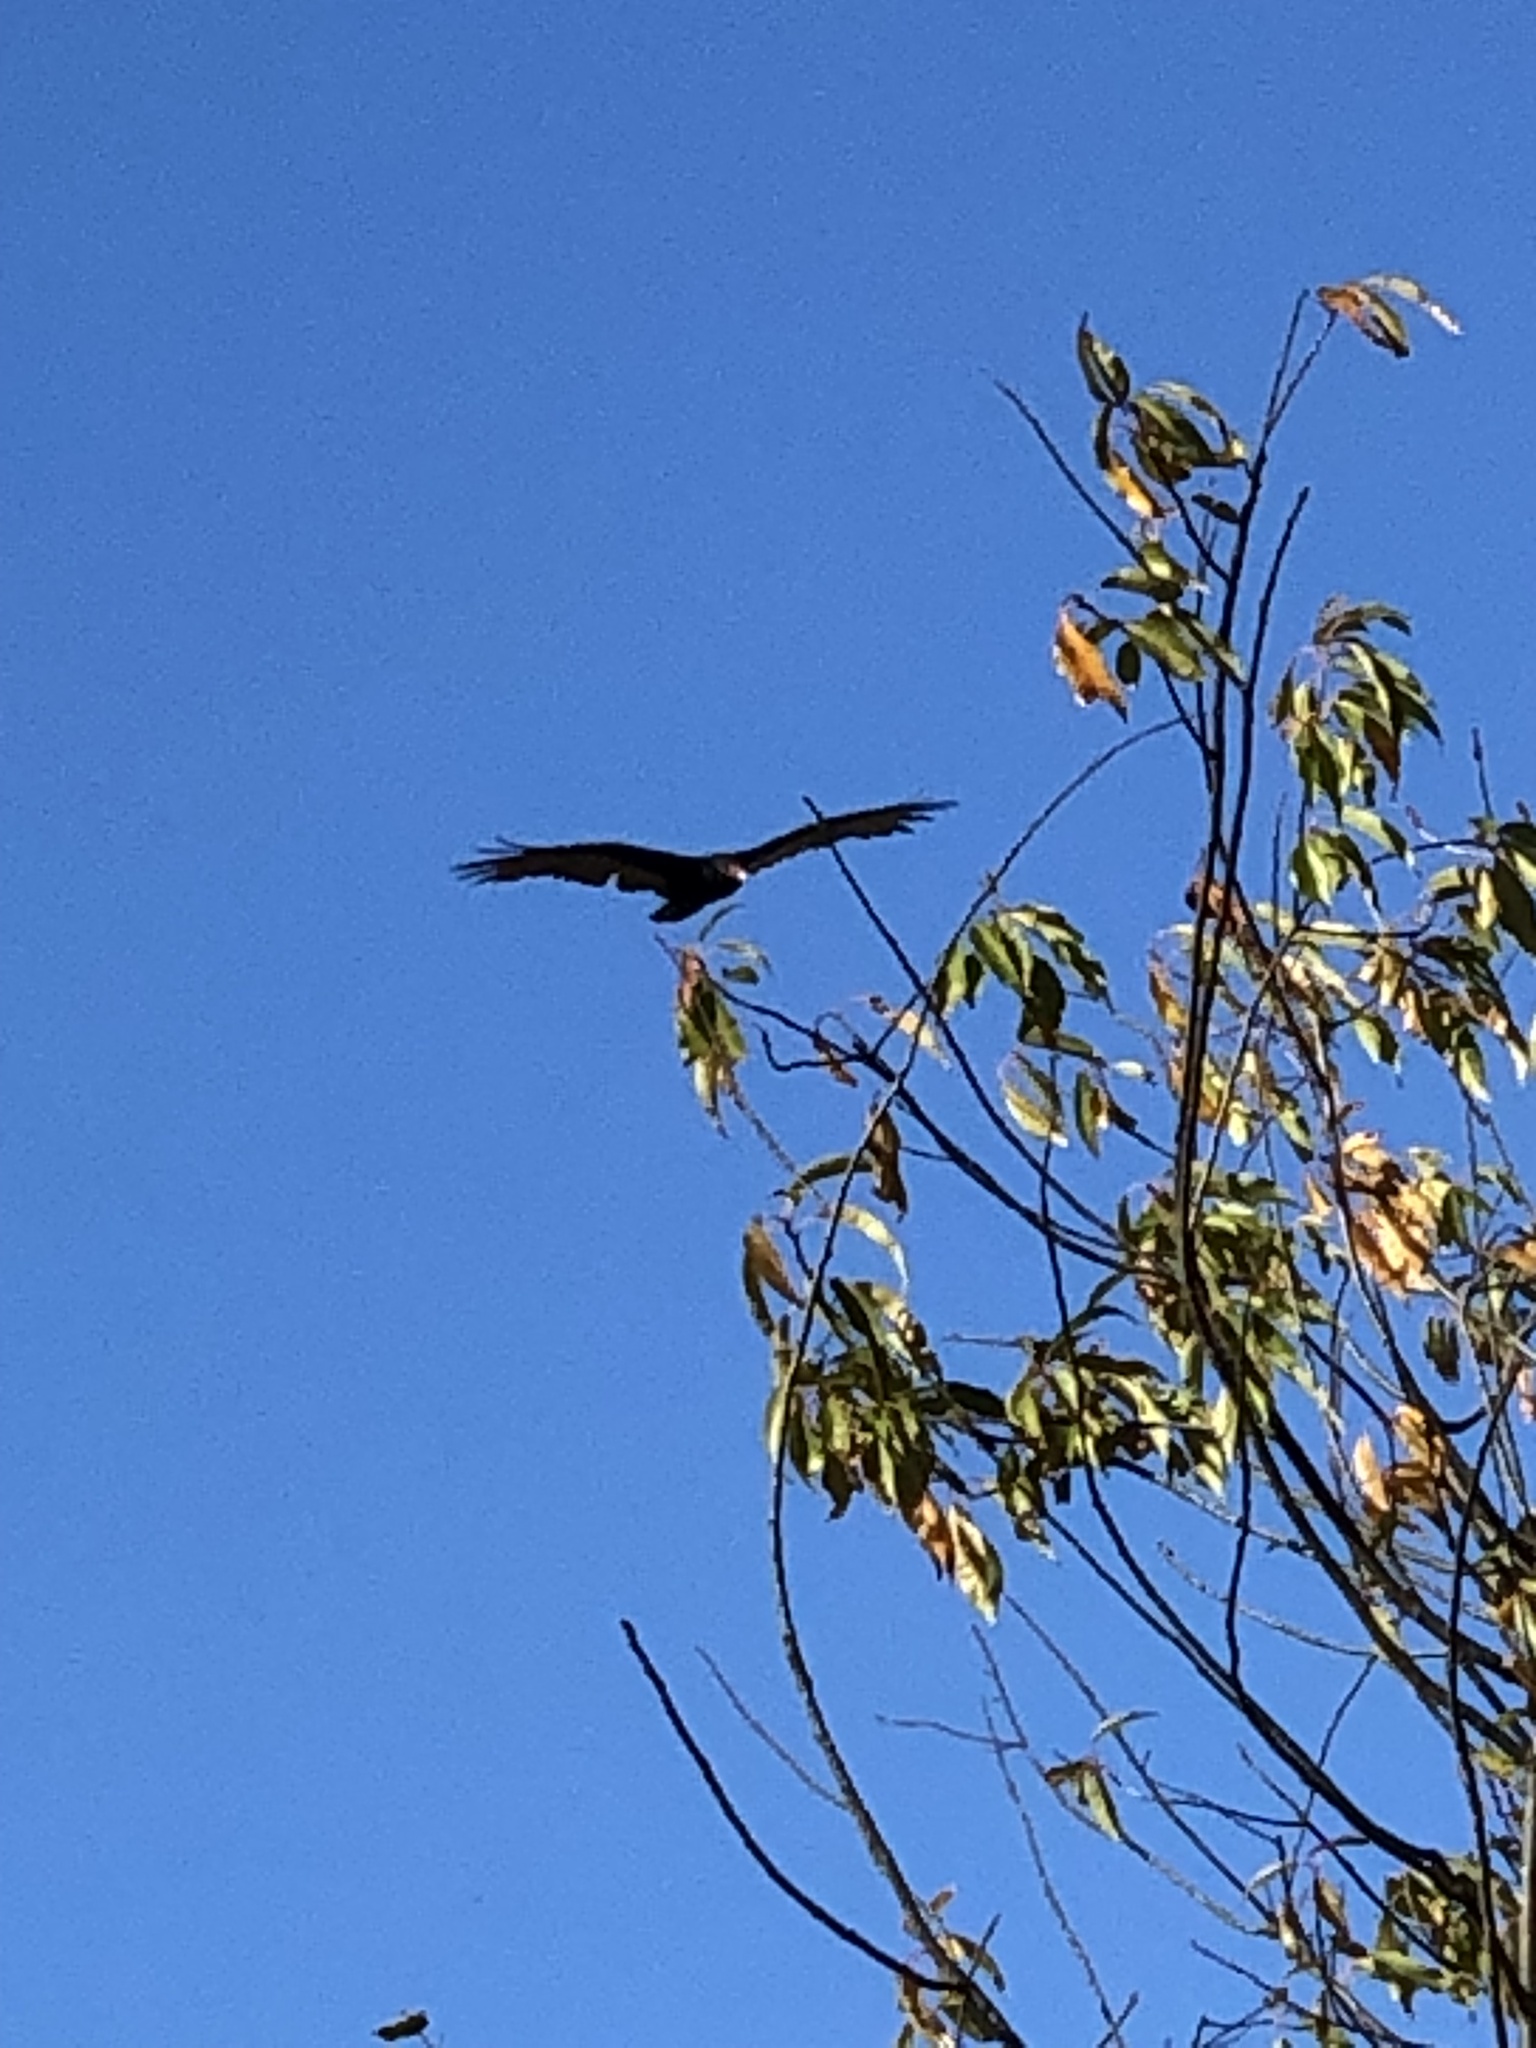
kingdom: Animalia
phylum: Chordata
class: Aves
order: Accipitriformes
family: Cathartidae
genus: Cathartes
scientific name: Cathartes aura
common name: Turkey vulture
